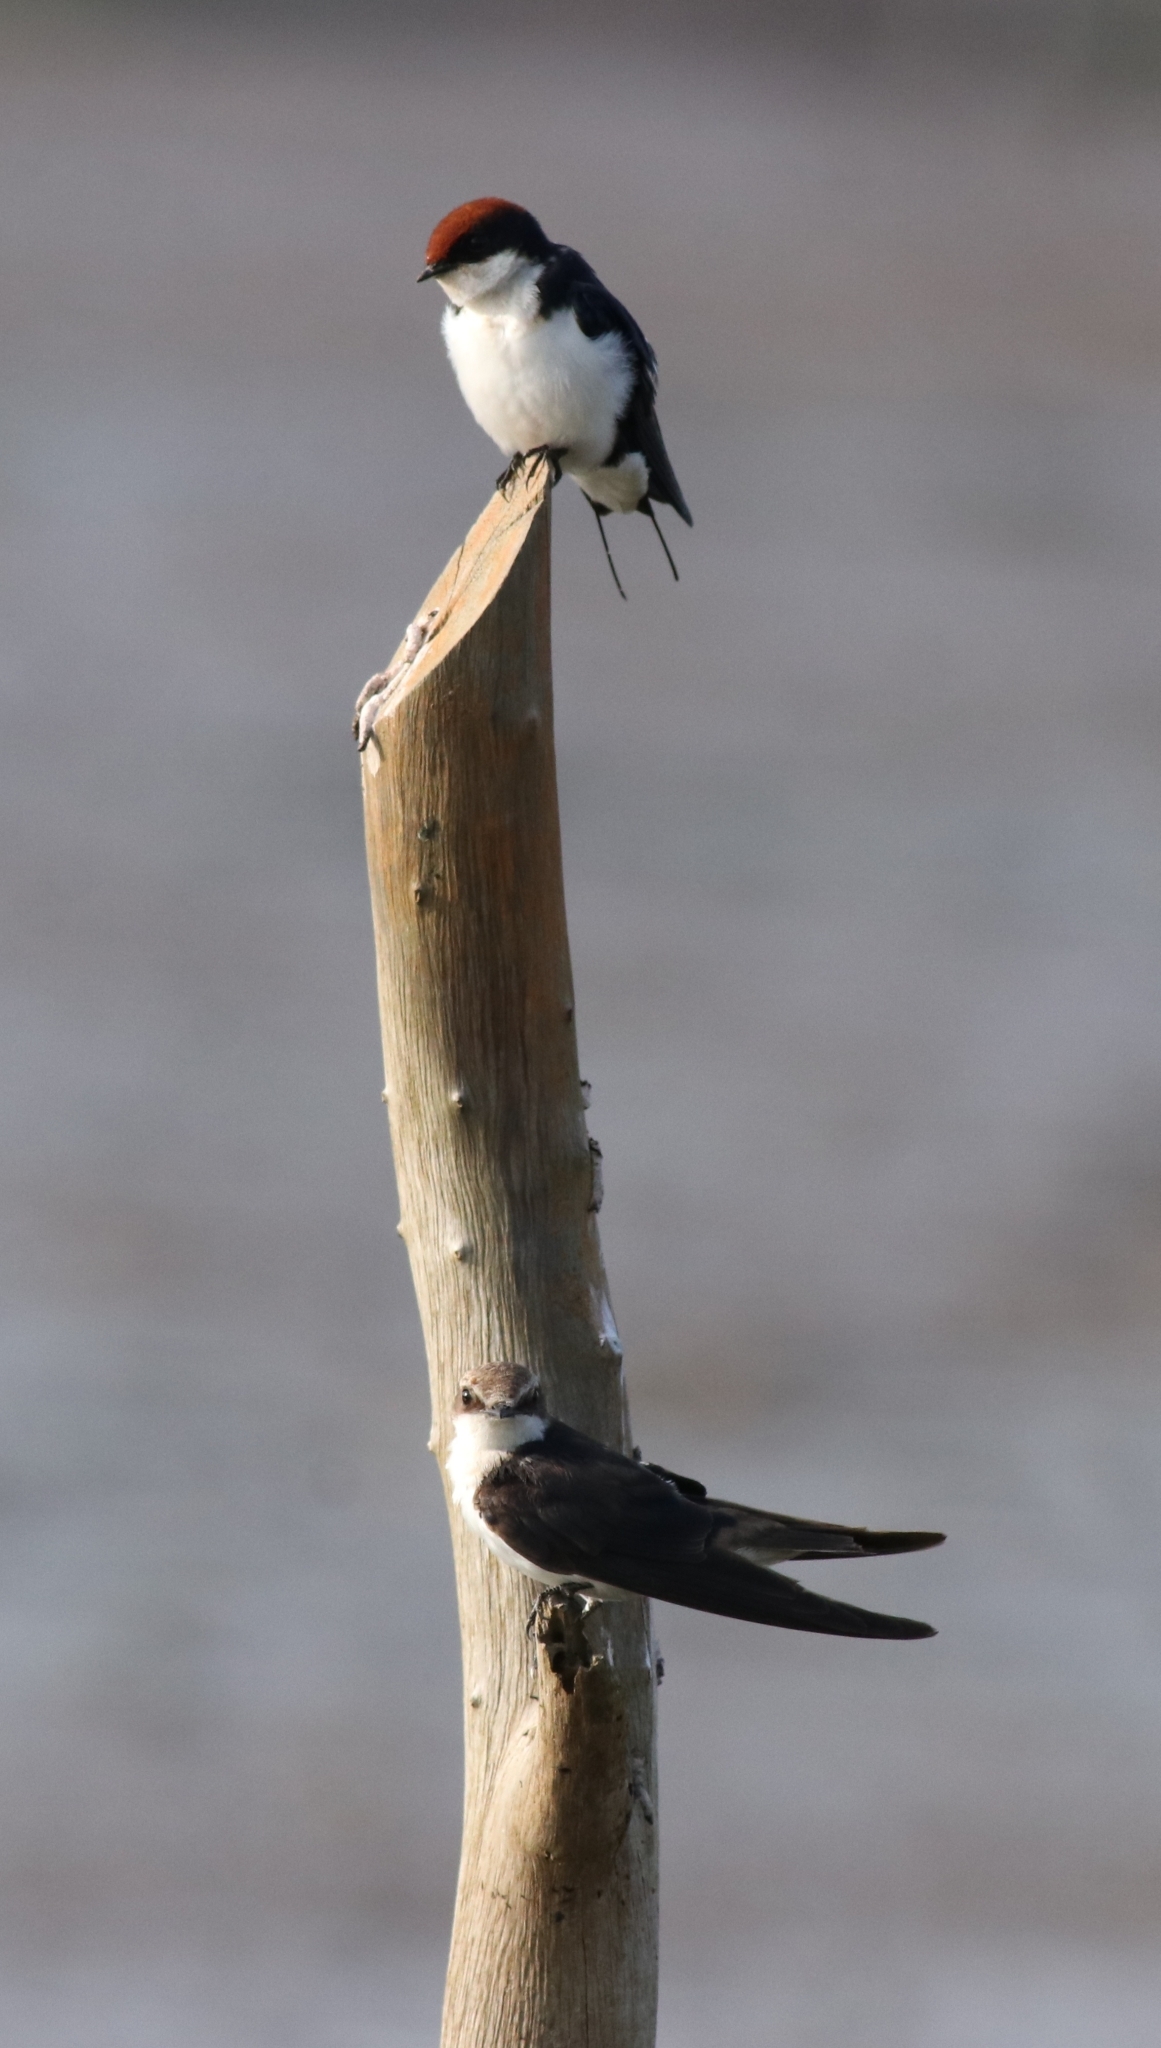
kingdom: Animalia
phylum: Chordata
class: Aves
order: Passeriformes
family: Hirundinidae
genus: Hirundo
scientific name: Hirundo smithii
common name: Wire-tailed swallow
